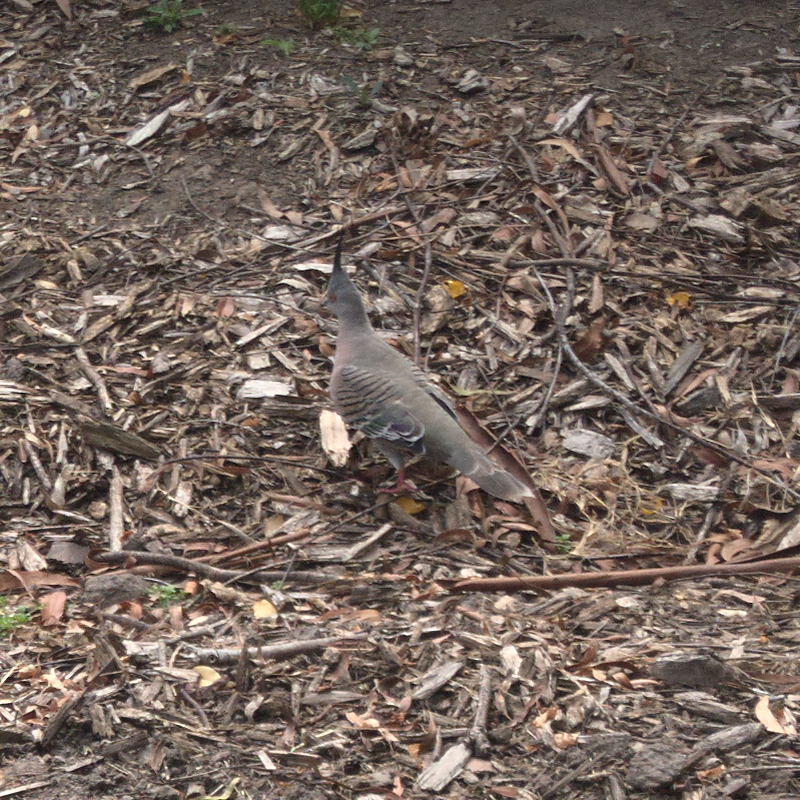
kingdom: Animalia
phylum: Chordata
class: Aves
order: Columbiformes
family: Columbidae
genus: Ocyphaps
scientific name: Ocyphaps lophotes
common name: Crested pigeon
